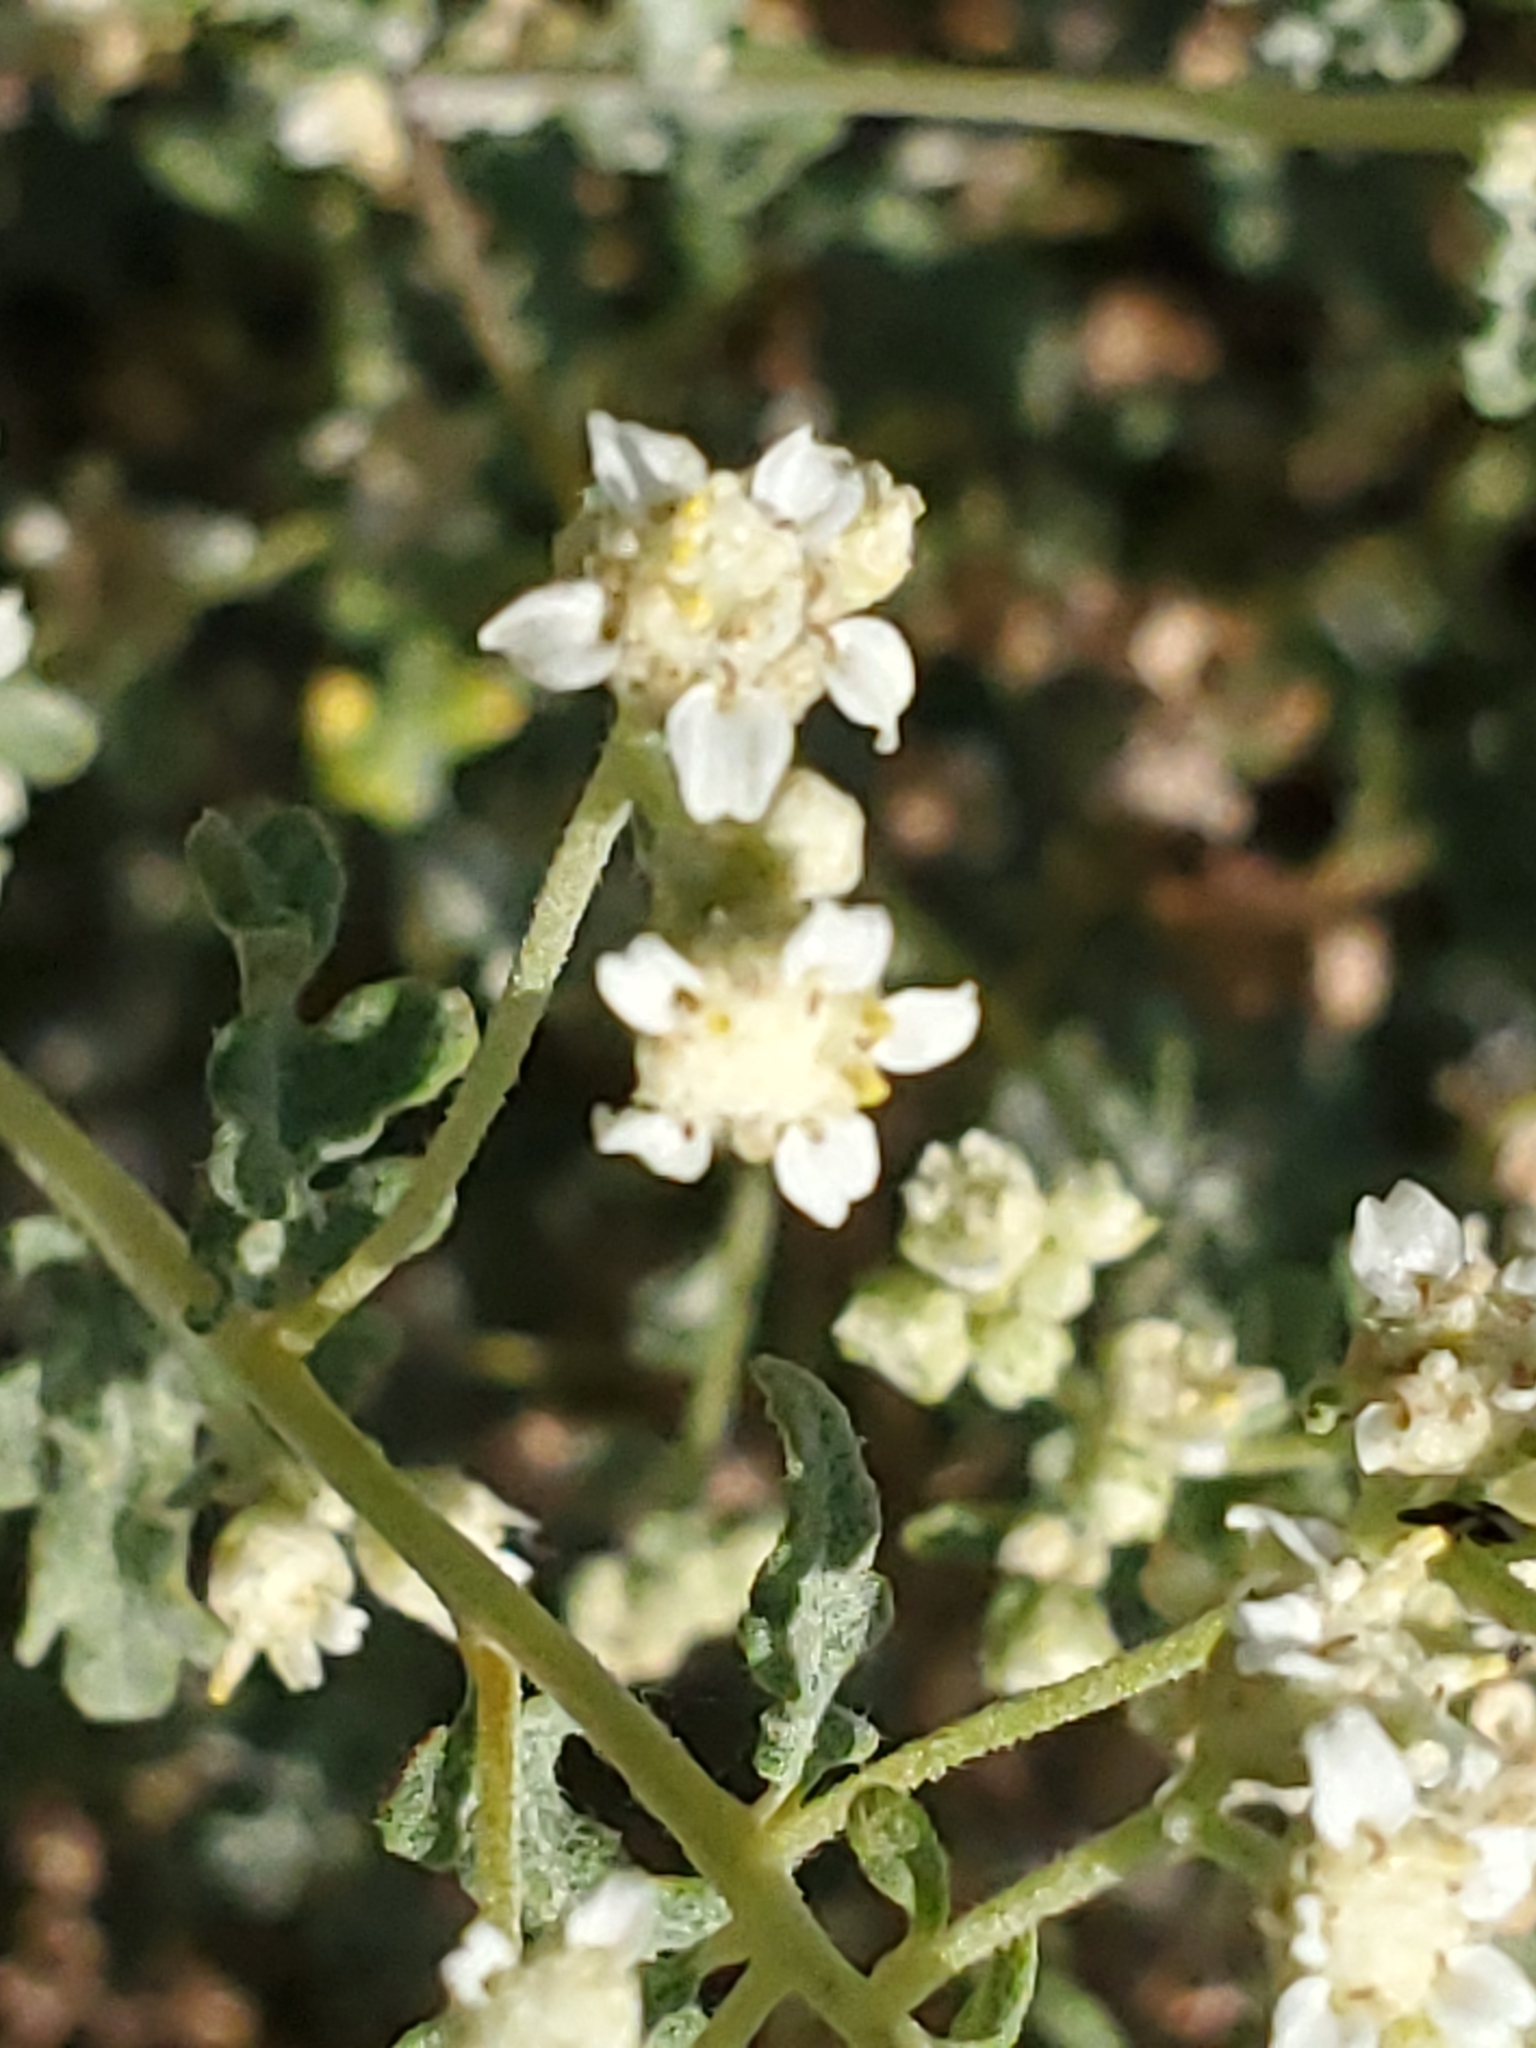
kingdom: Plantae
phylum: Tracheophyta
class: Magnoliopsida
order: Asterales
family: Asteraceae
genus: Parthenium
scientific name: Parthenium incanum
